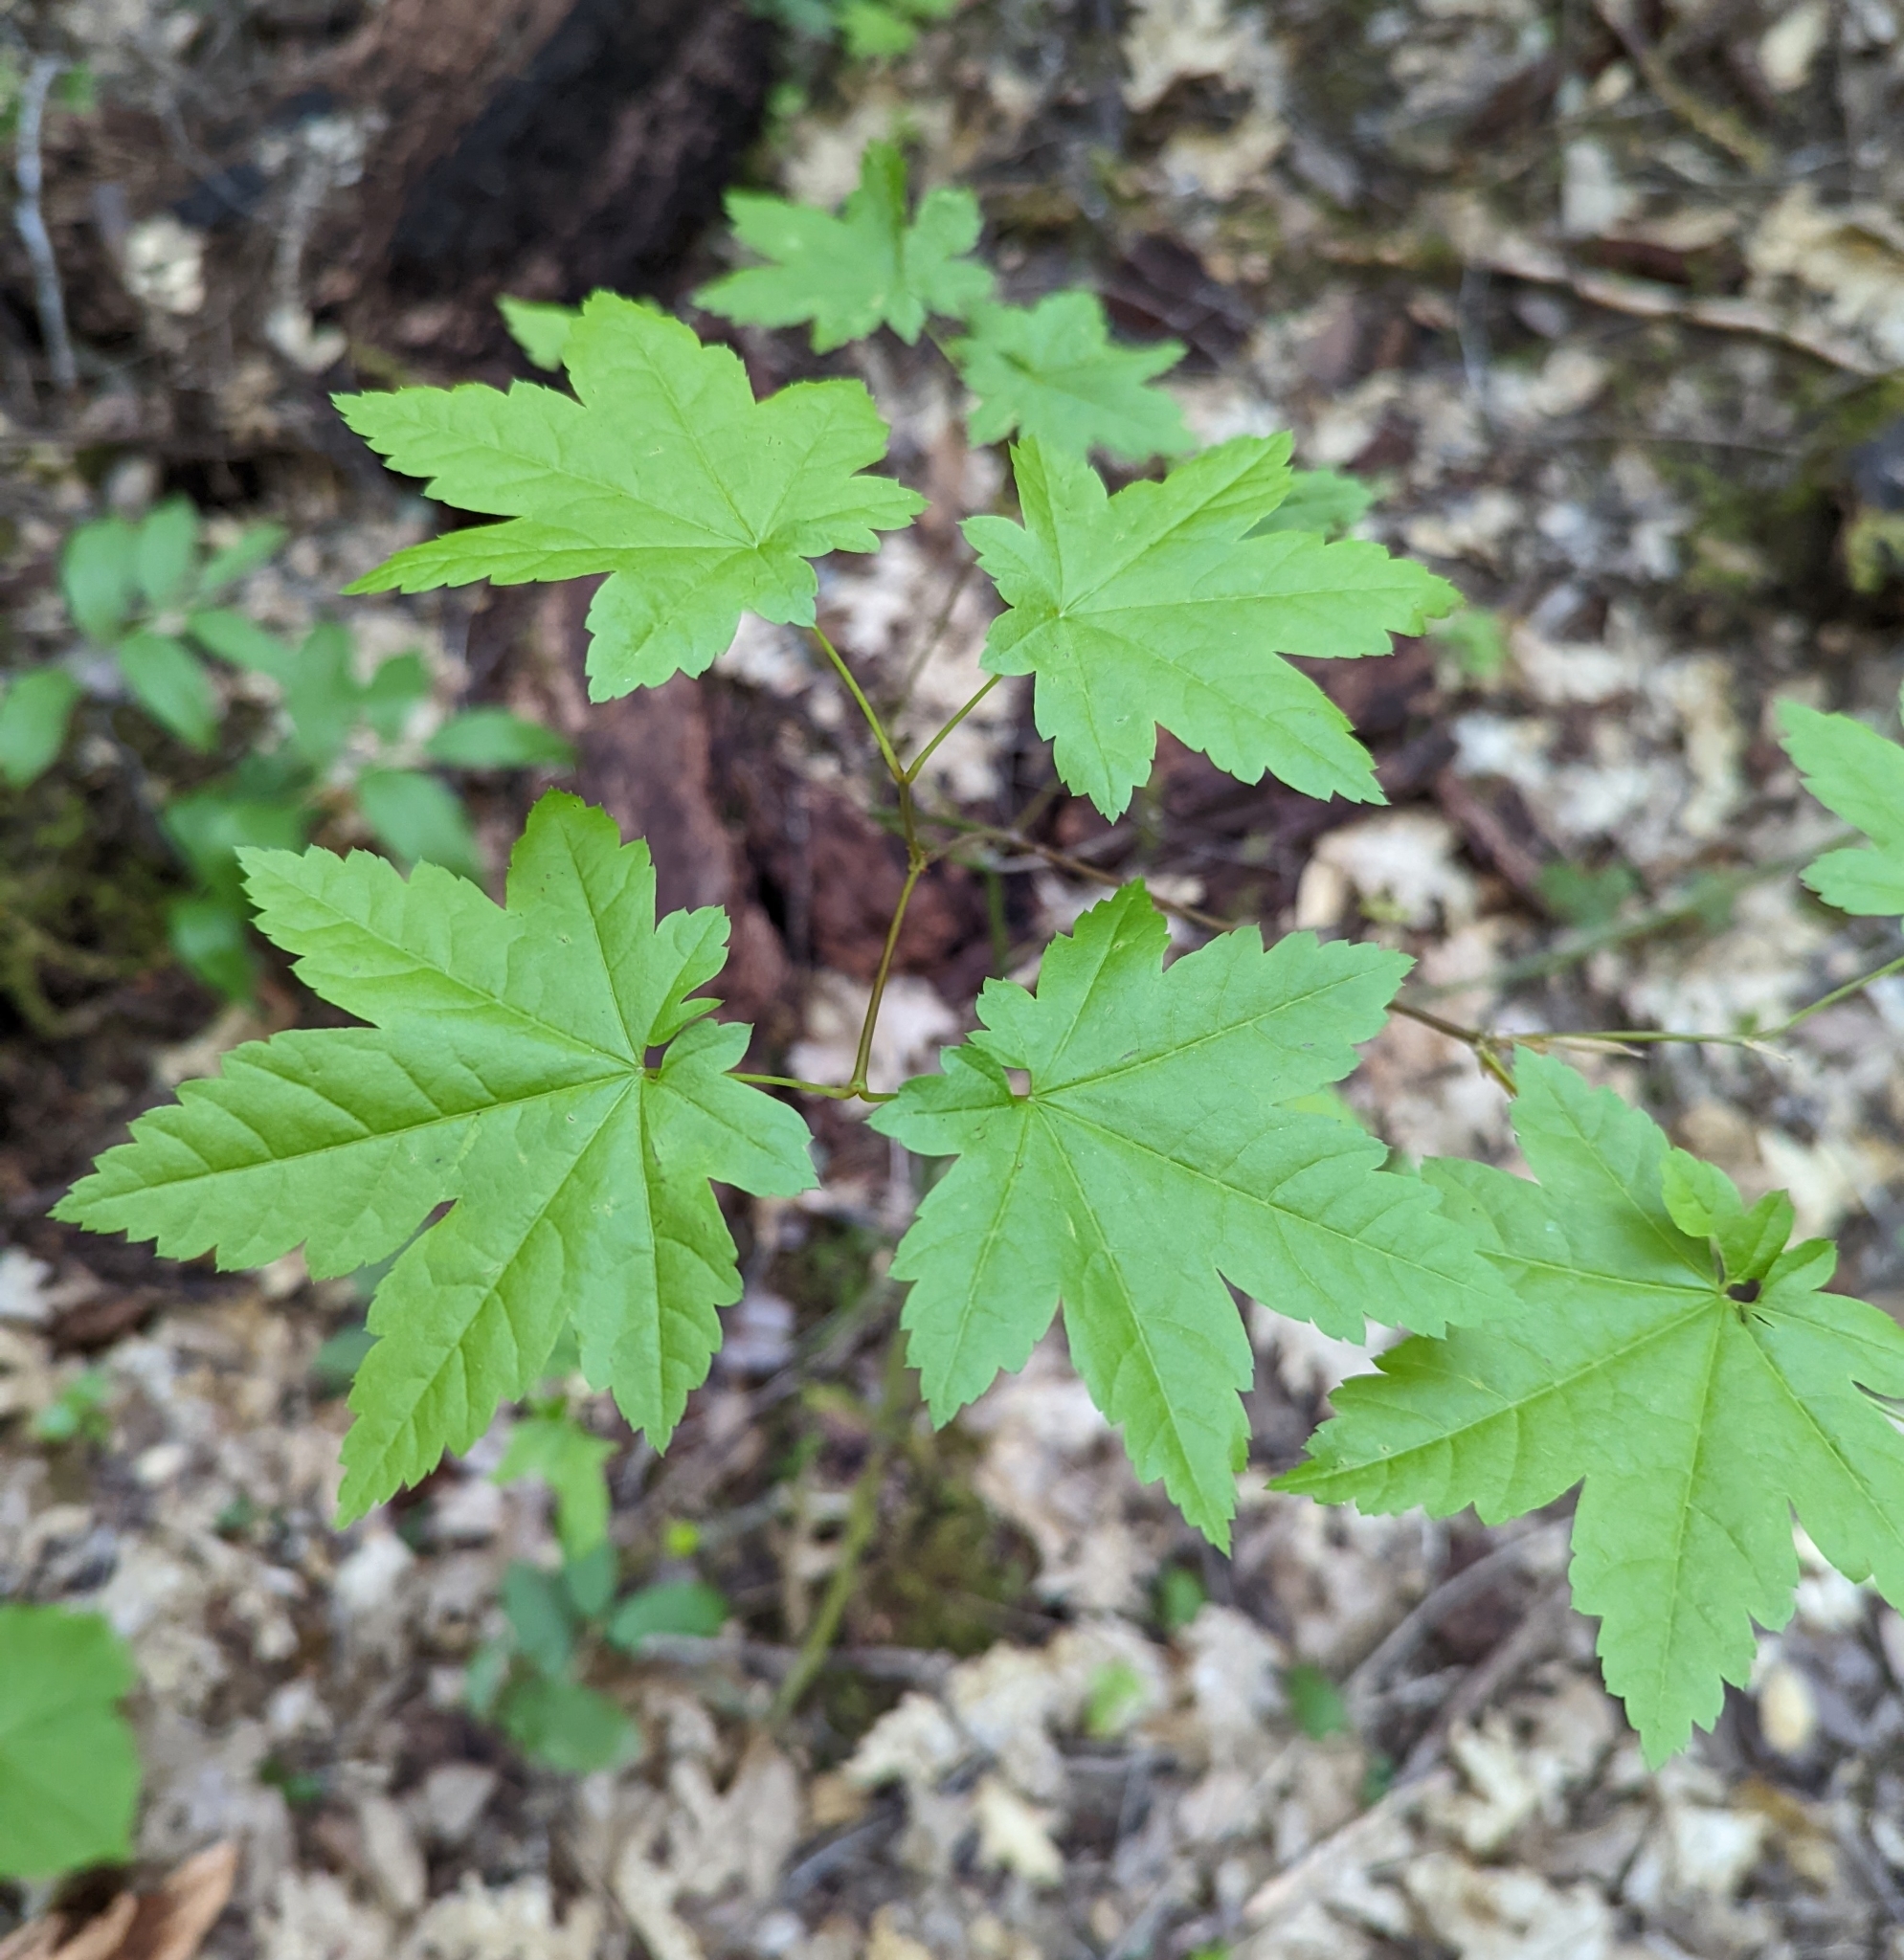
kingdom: Plantae
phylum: Tracheophyta
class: Magnoliopsida
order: Sapindales
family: Sapindaceae
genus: Acer
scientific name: Acer circinatum
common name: Vine maple
